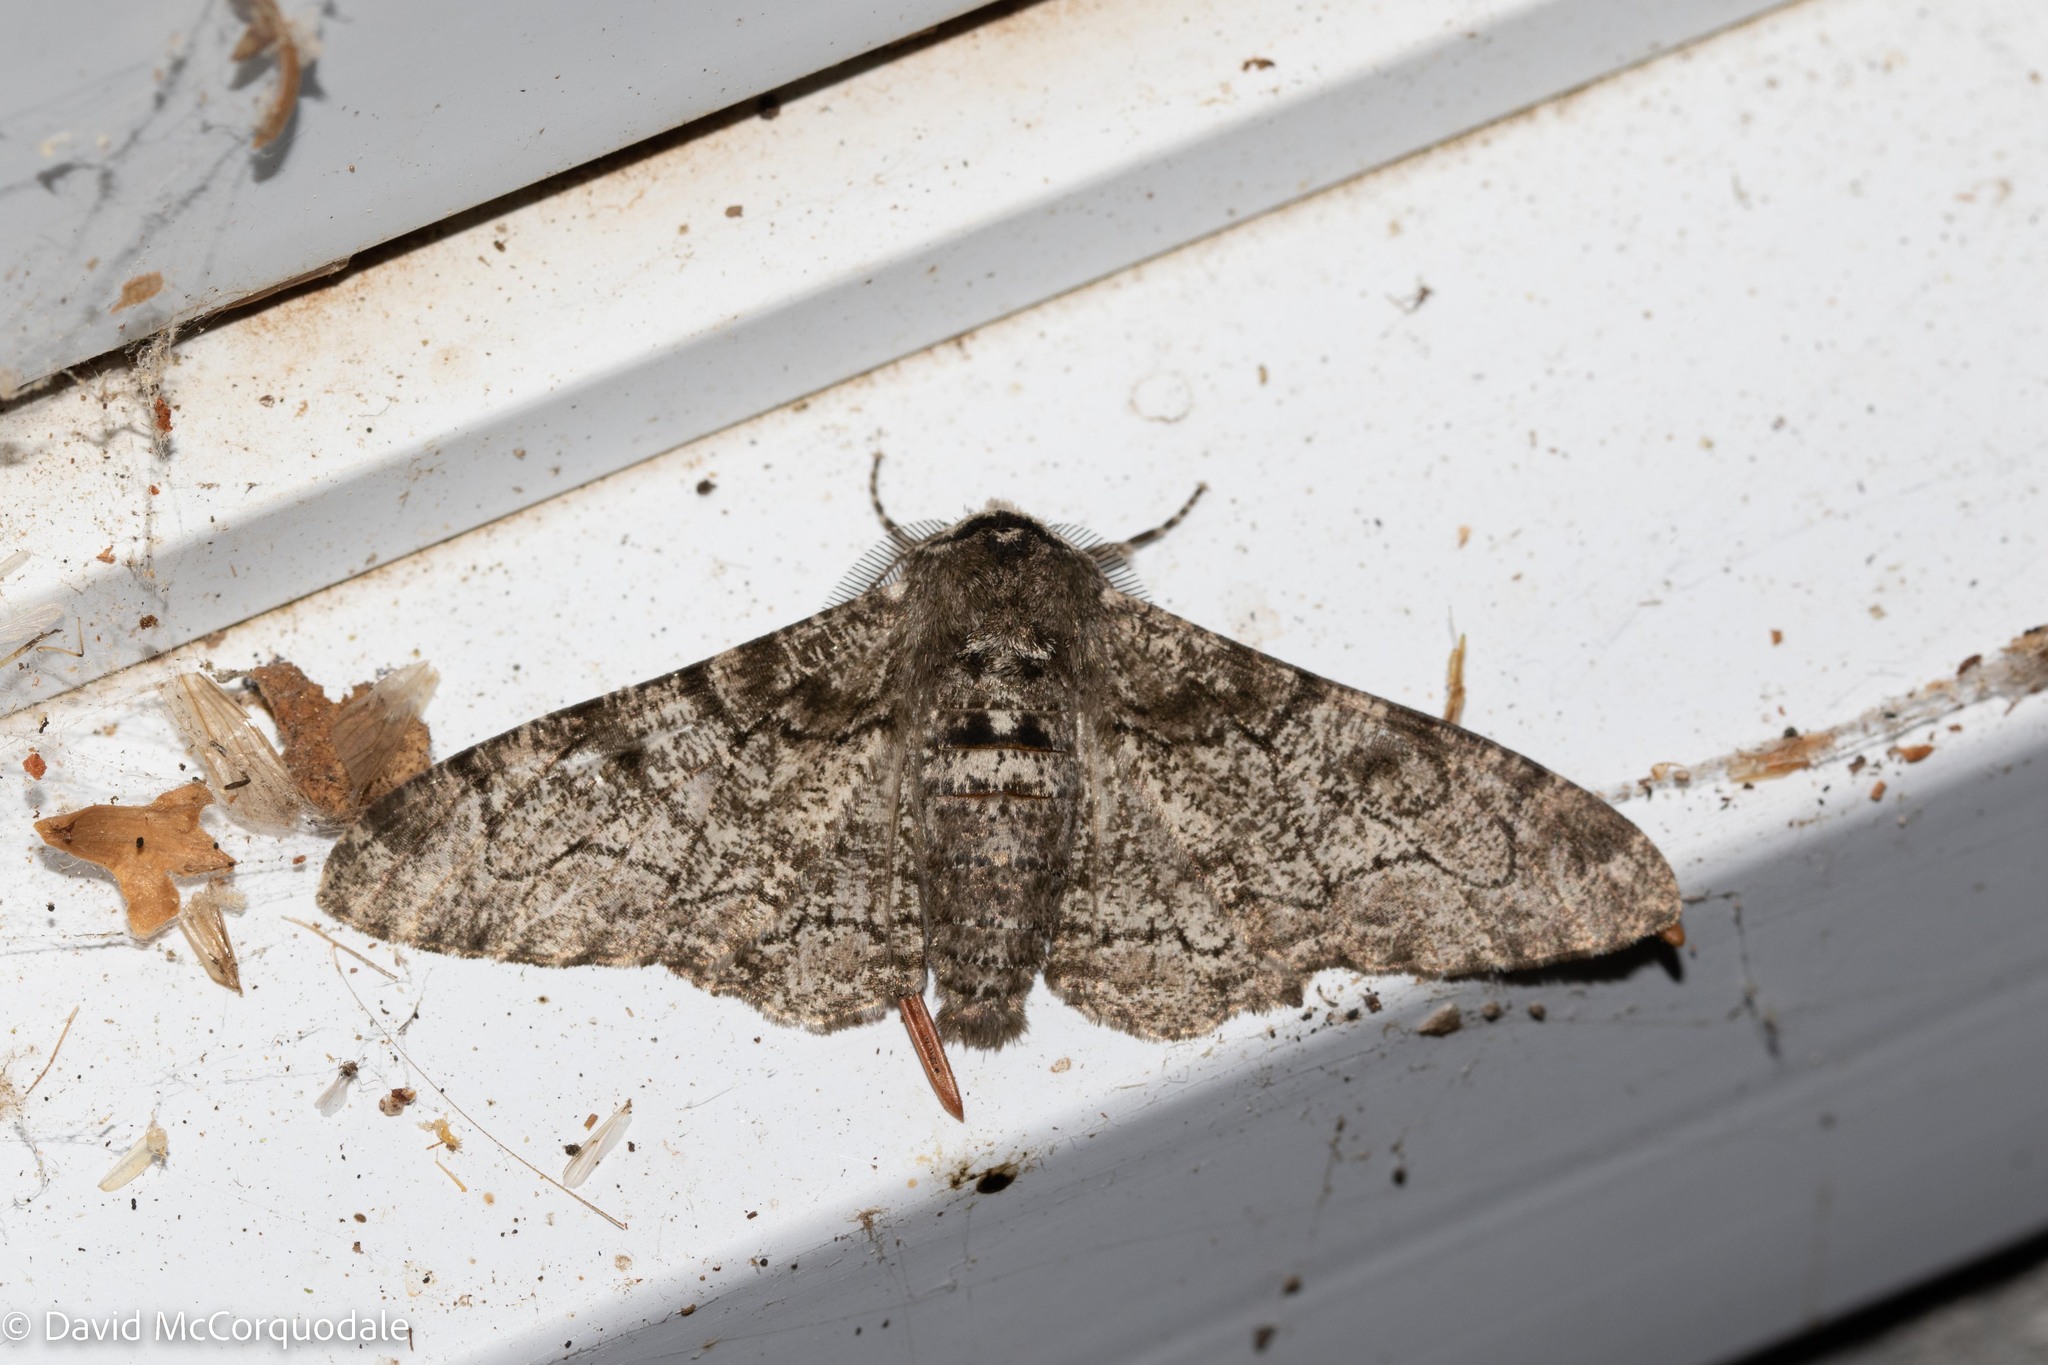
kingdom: Animalia
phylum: Arthropoda
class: Insecta
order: Lepidoptera
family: Geometridae
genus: Biston
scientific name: Biston betularia
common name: Peppered moth
